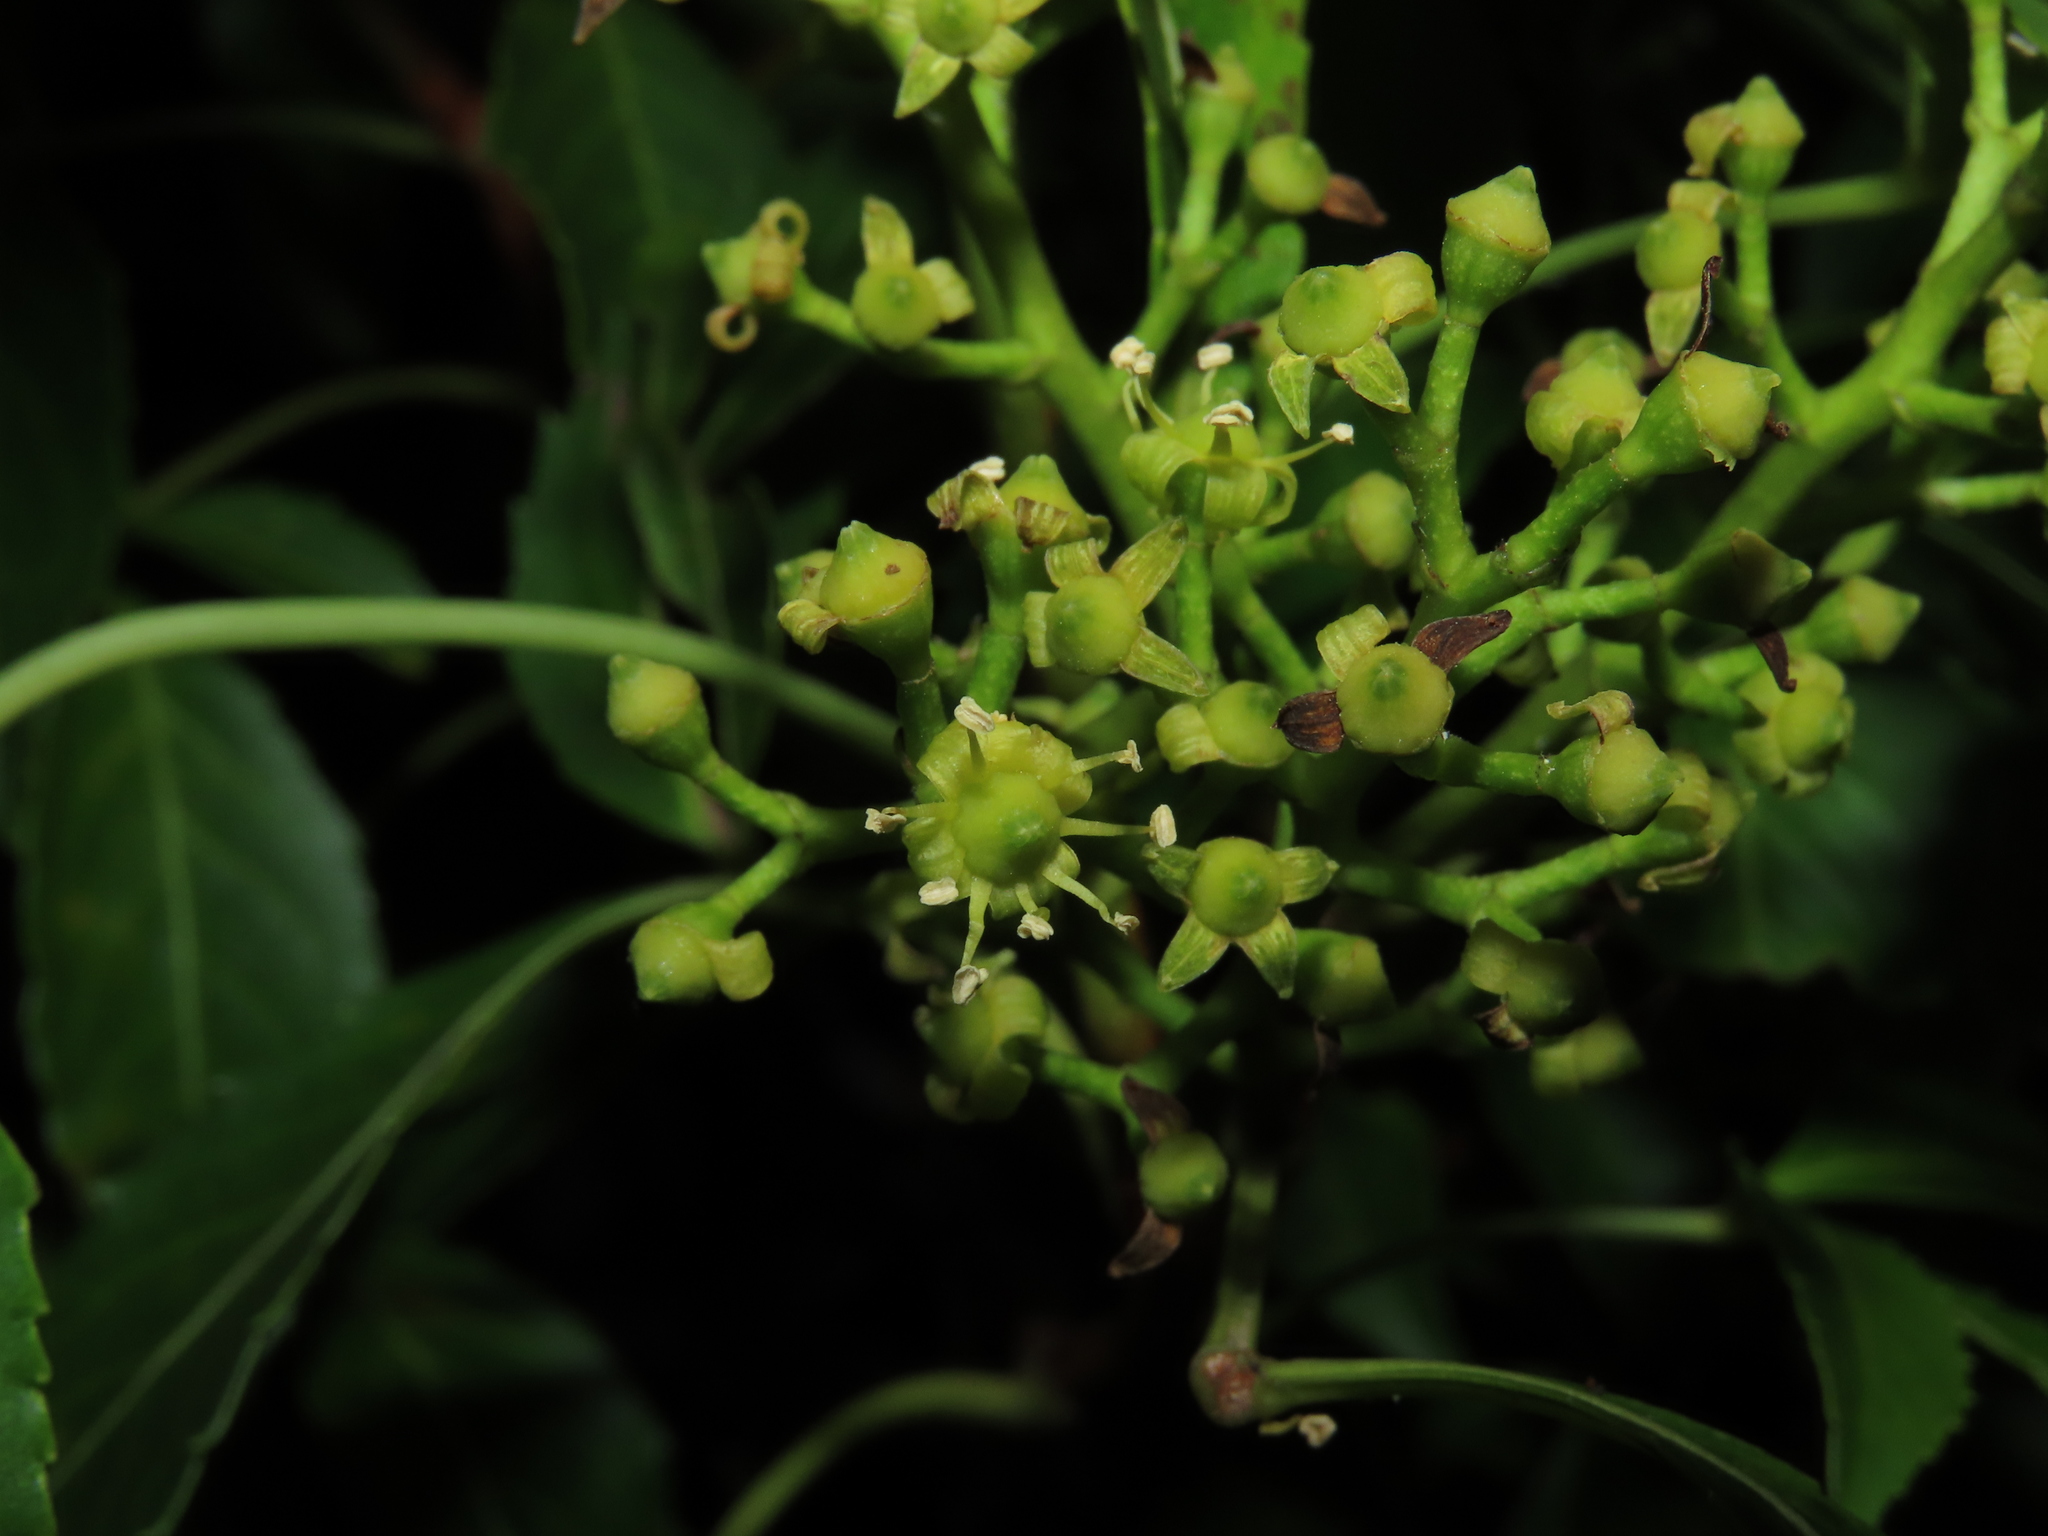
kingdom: Plantae
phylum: Tracheophyta
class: Magnoliopsida
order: Apiales
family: Araliaceae
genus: Raukaua
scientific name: Raukaua laetevirens
